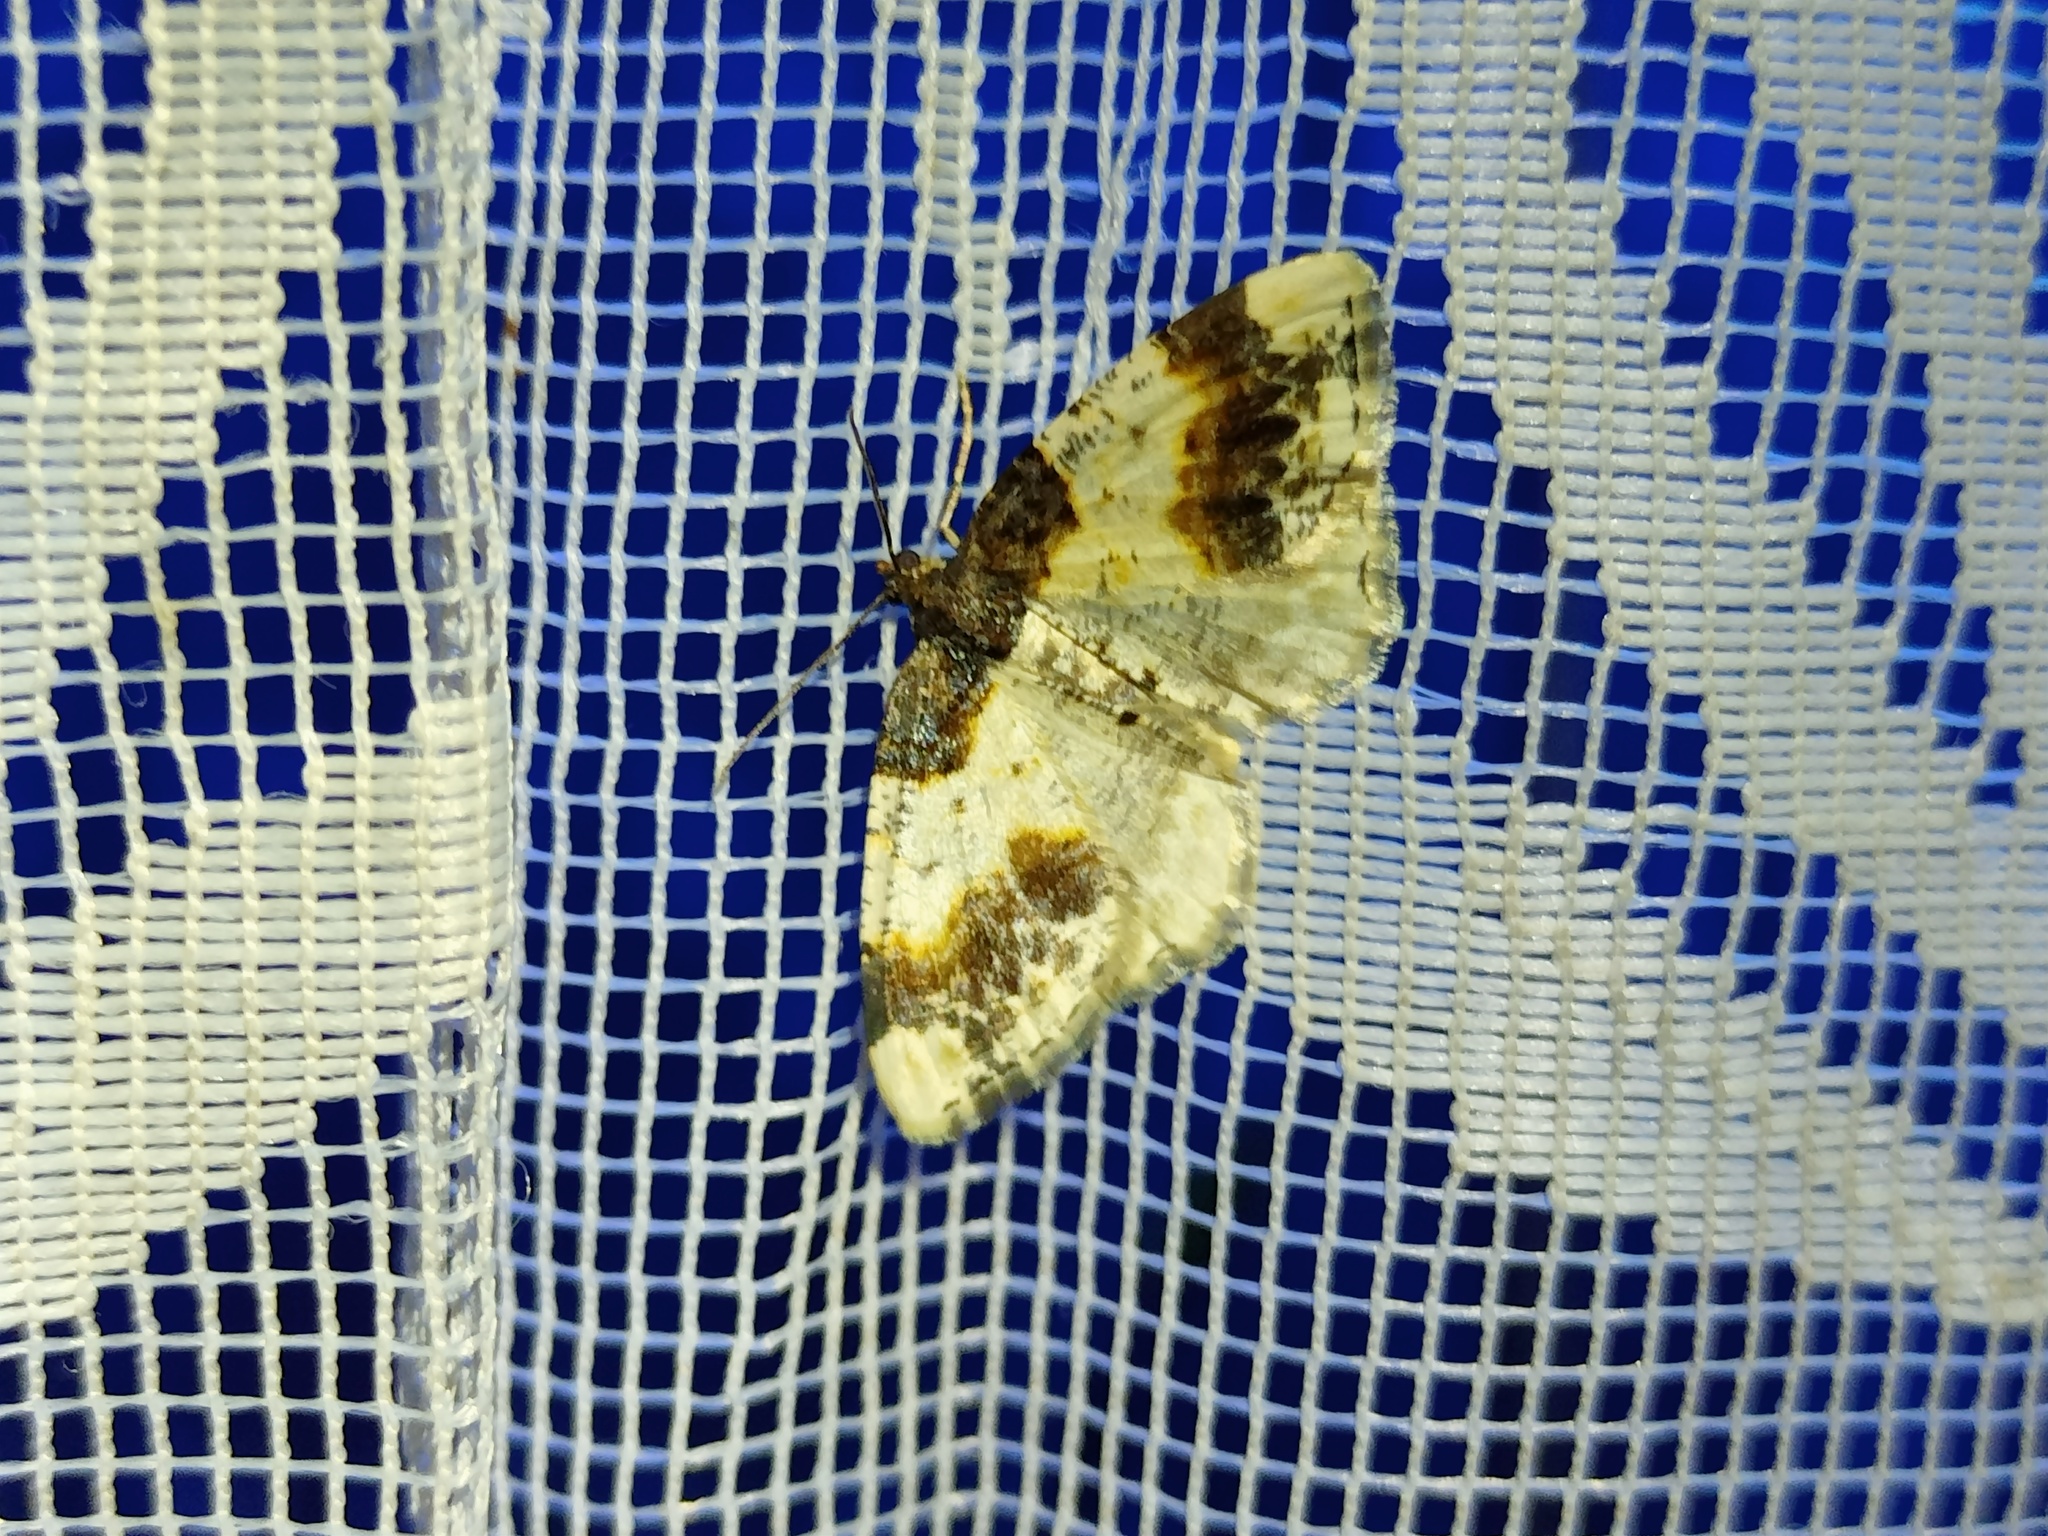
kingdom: Animalia
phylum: Arthropoda
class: Insecta
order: Lepidoptera
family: Geometridae
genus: Ligdia
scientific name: Ligdia adustata
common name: Scorched carpet
